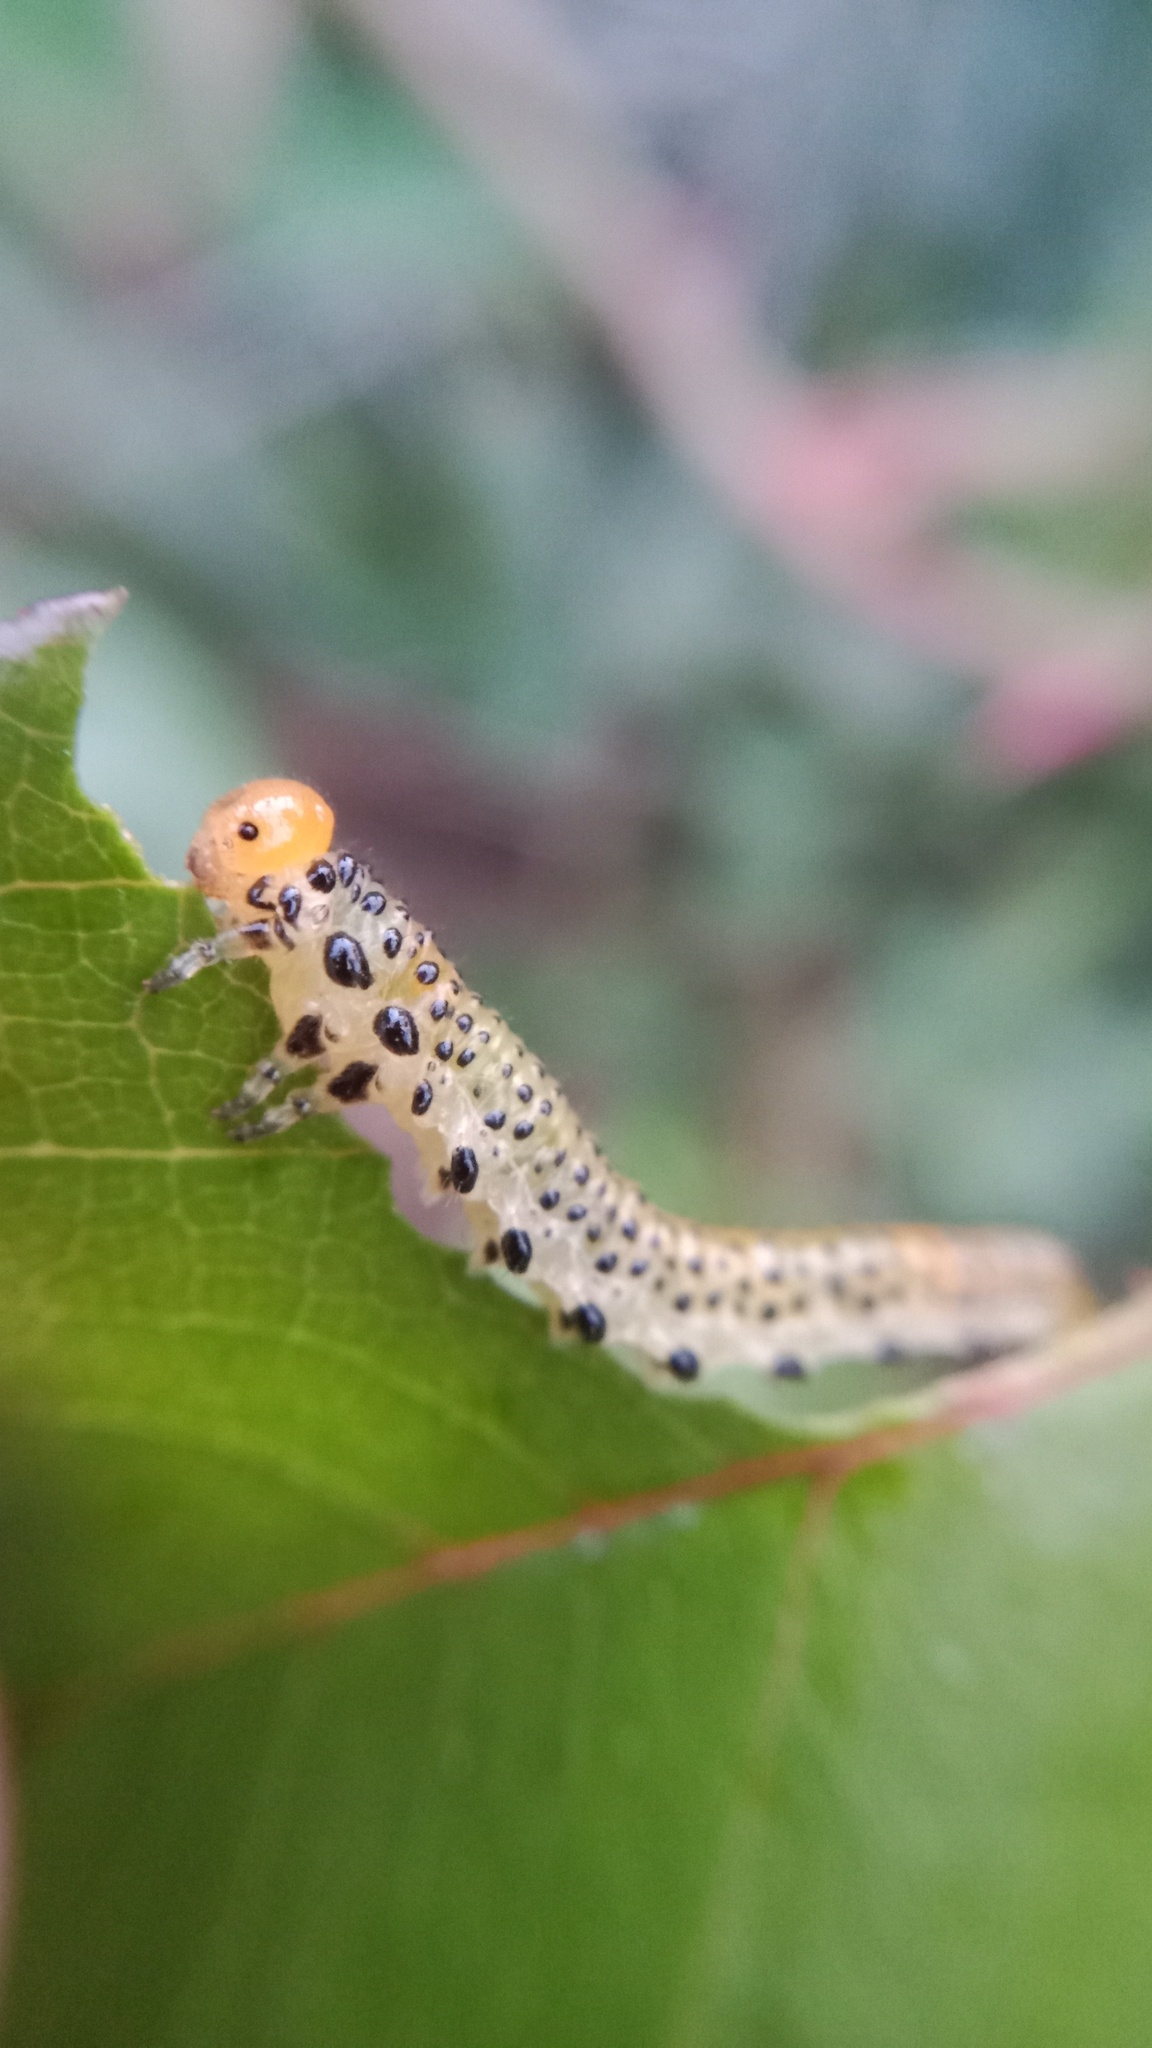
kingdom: Animalia
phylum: Arthropoda
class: Insecta
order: Hymenoptera
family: Argidae
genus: Arge
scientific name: Arge pagana
